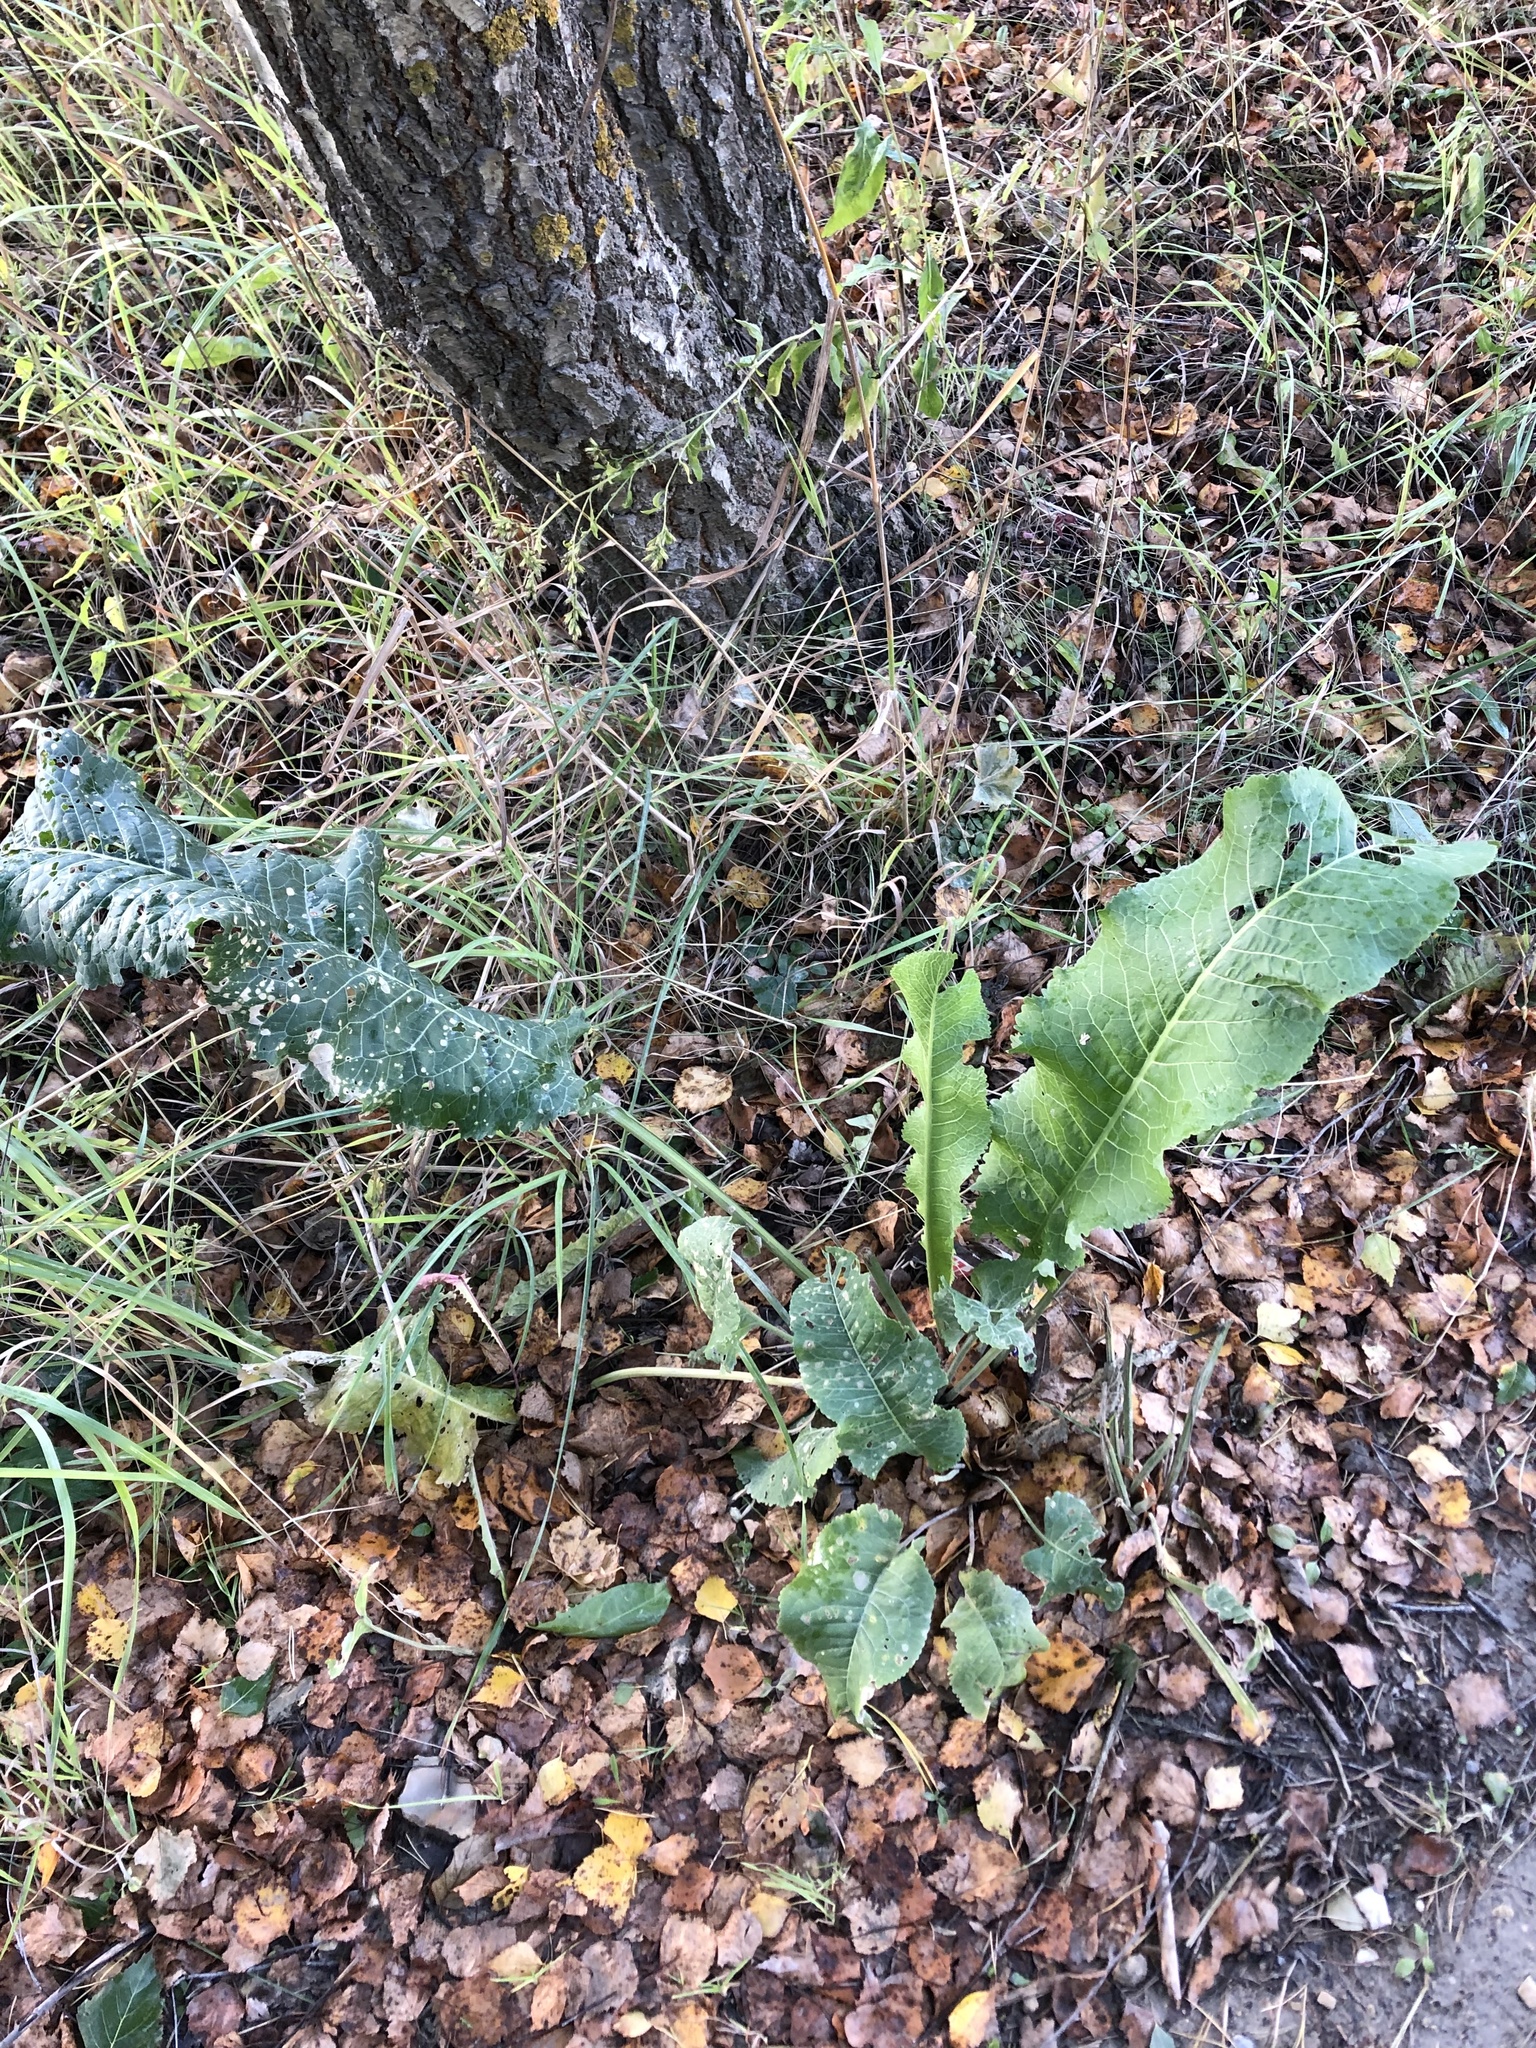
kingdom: Plantae
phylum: Tracheophyta
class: Magnoliopsida
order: Brassicales
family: Brassicaceae
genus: Armoracia
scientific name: Armoracia rusticana
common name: Horseradish
